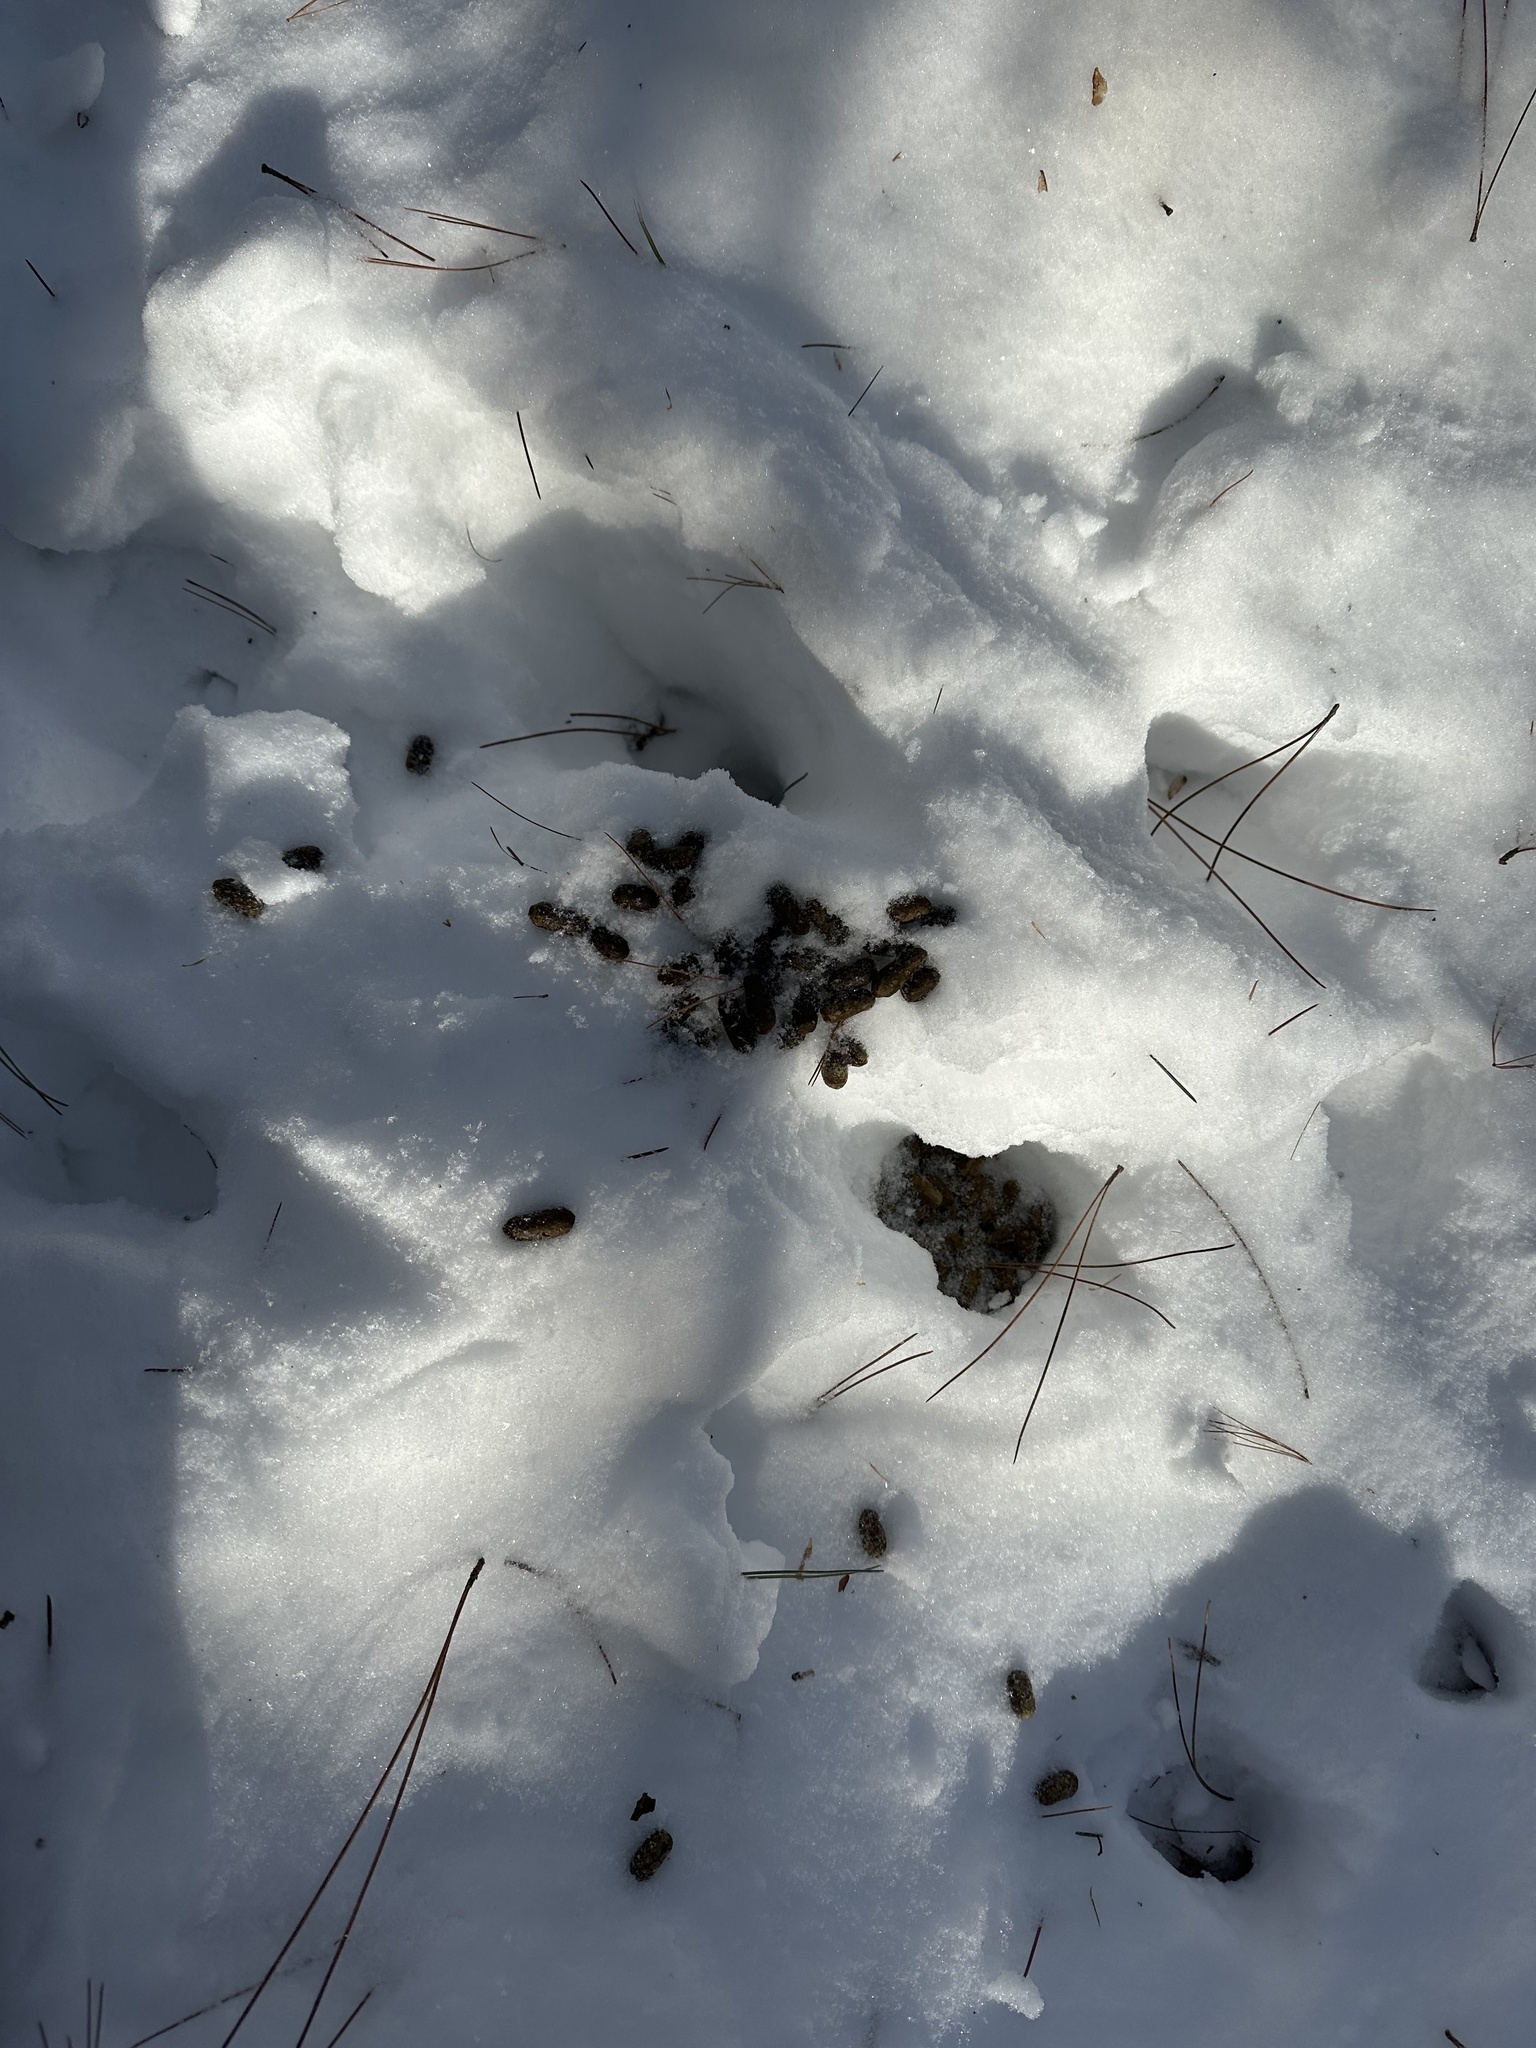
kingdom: Animalia
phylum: Chordata
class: Mammalia
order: Artiodactyla
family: Cervidae
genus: Odocoileus
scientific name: Odocoileus virginianus
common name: White-tailed deer
